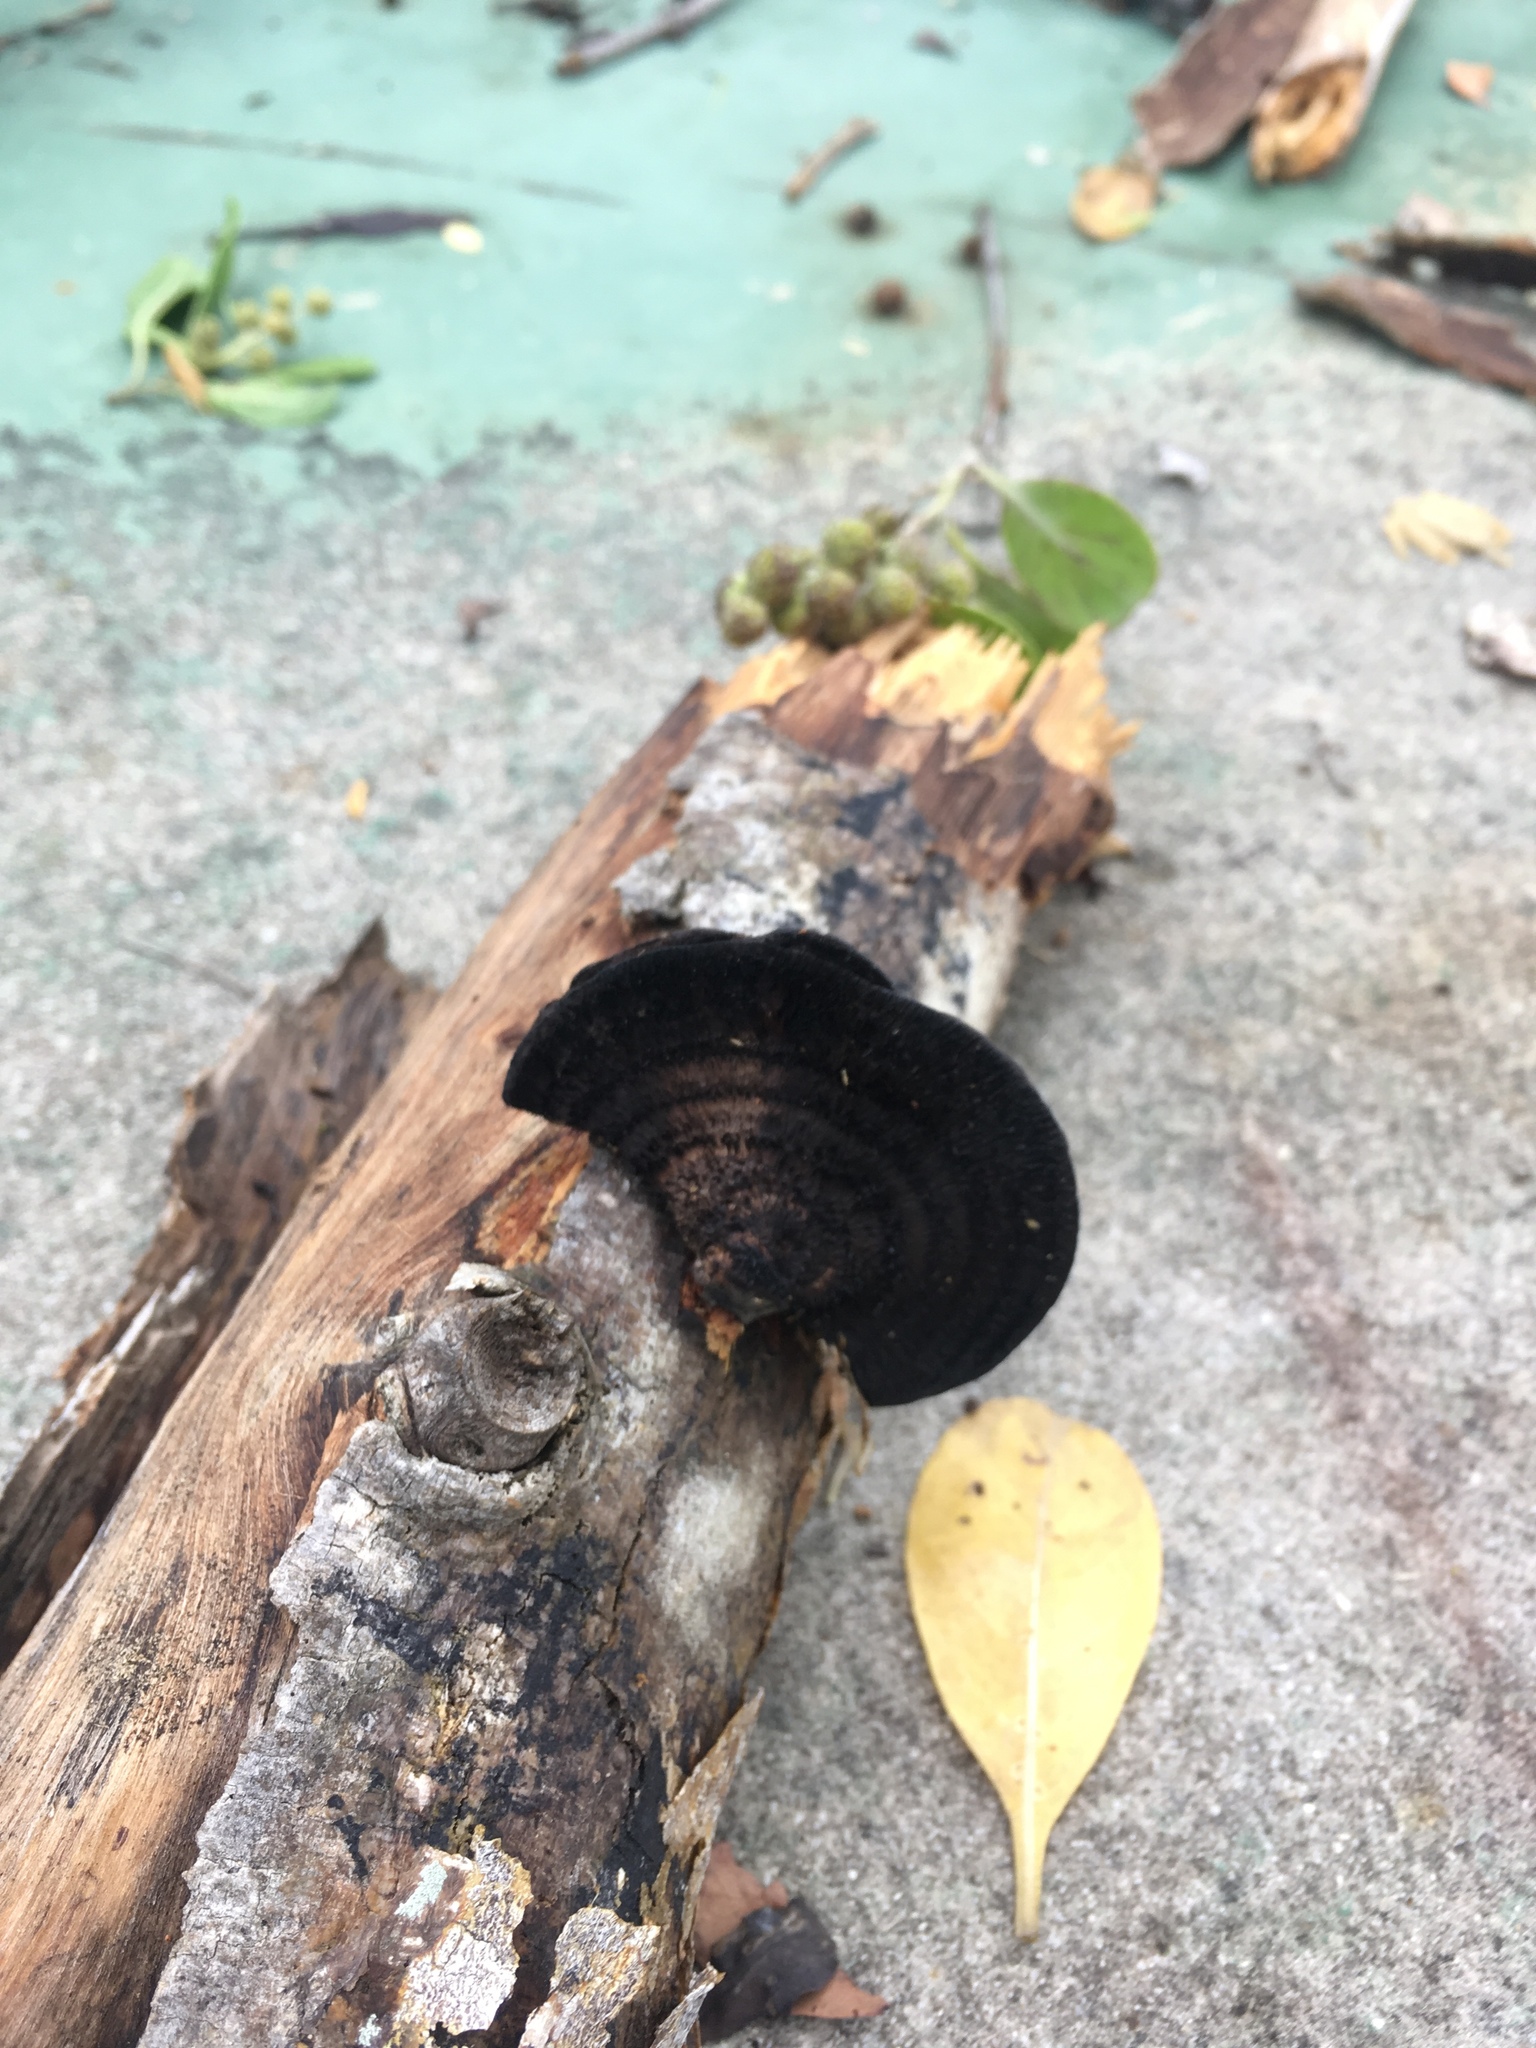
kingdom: Fungi
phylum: Basidiomycota
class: Agaricomycetes
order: Polyporales
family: Cerrenaceae
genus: Cerrena
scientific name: Cerrena hydnoides
